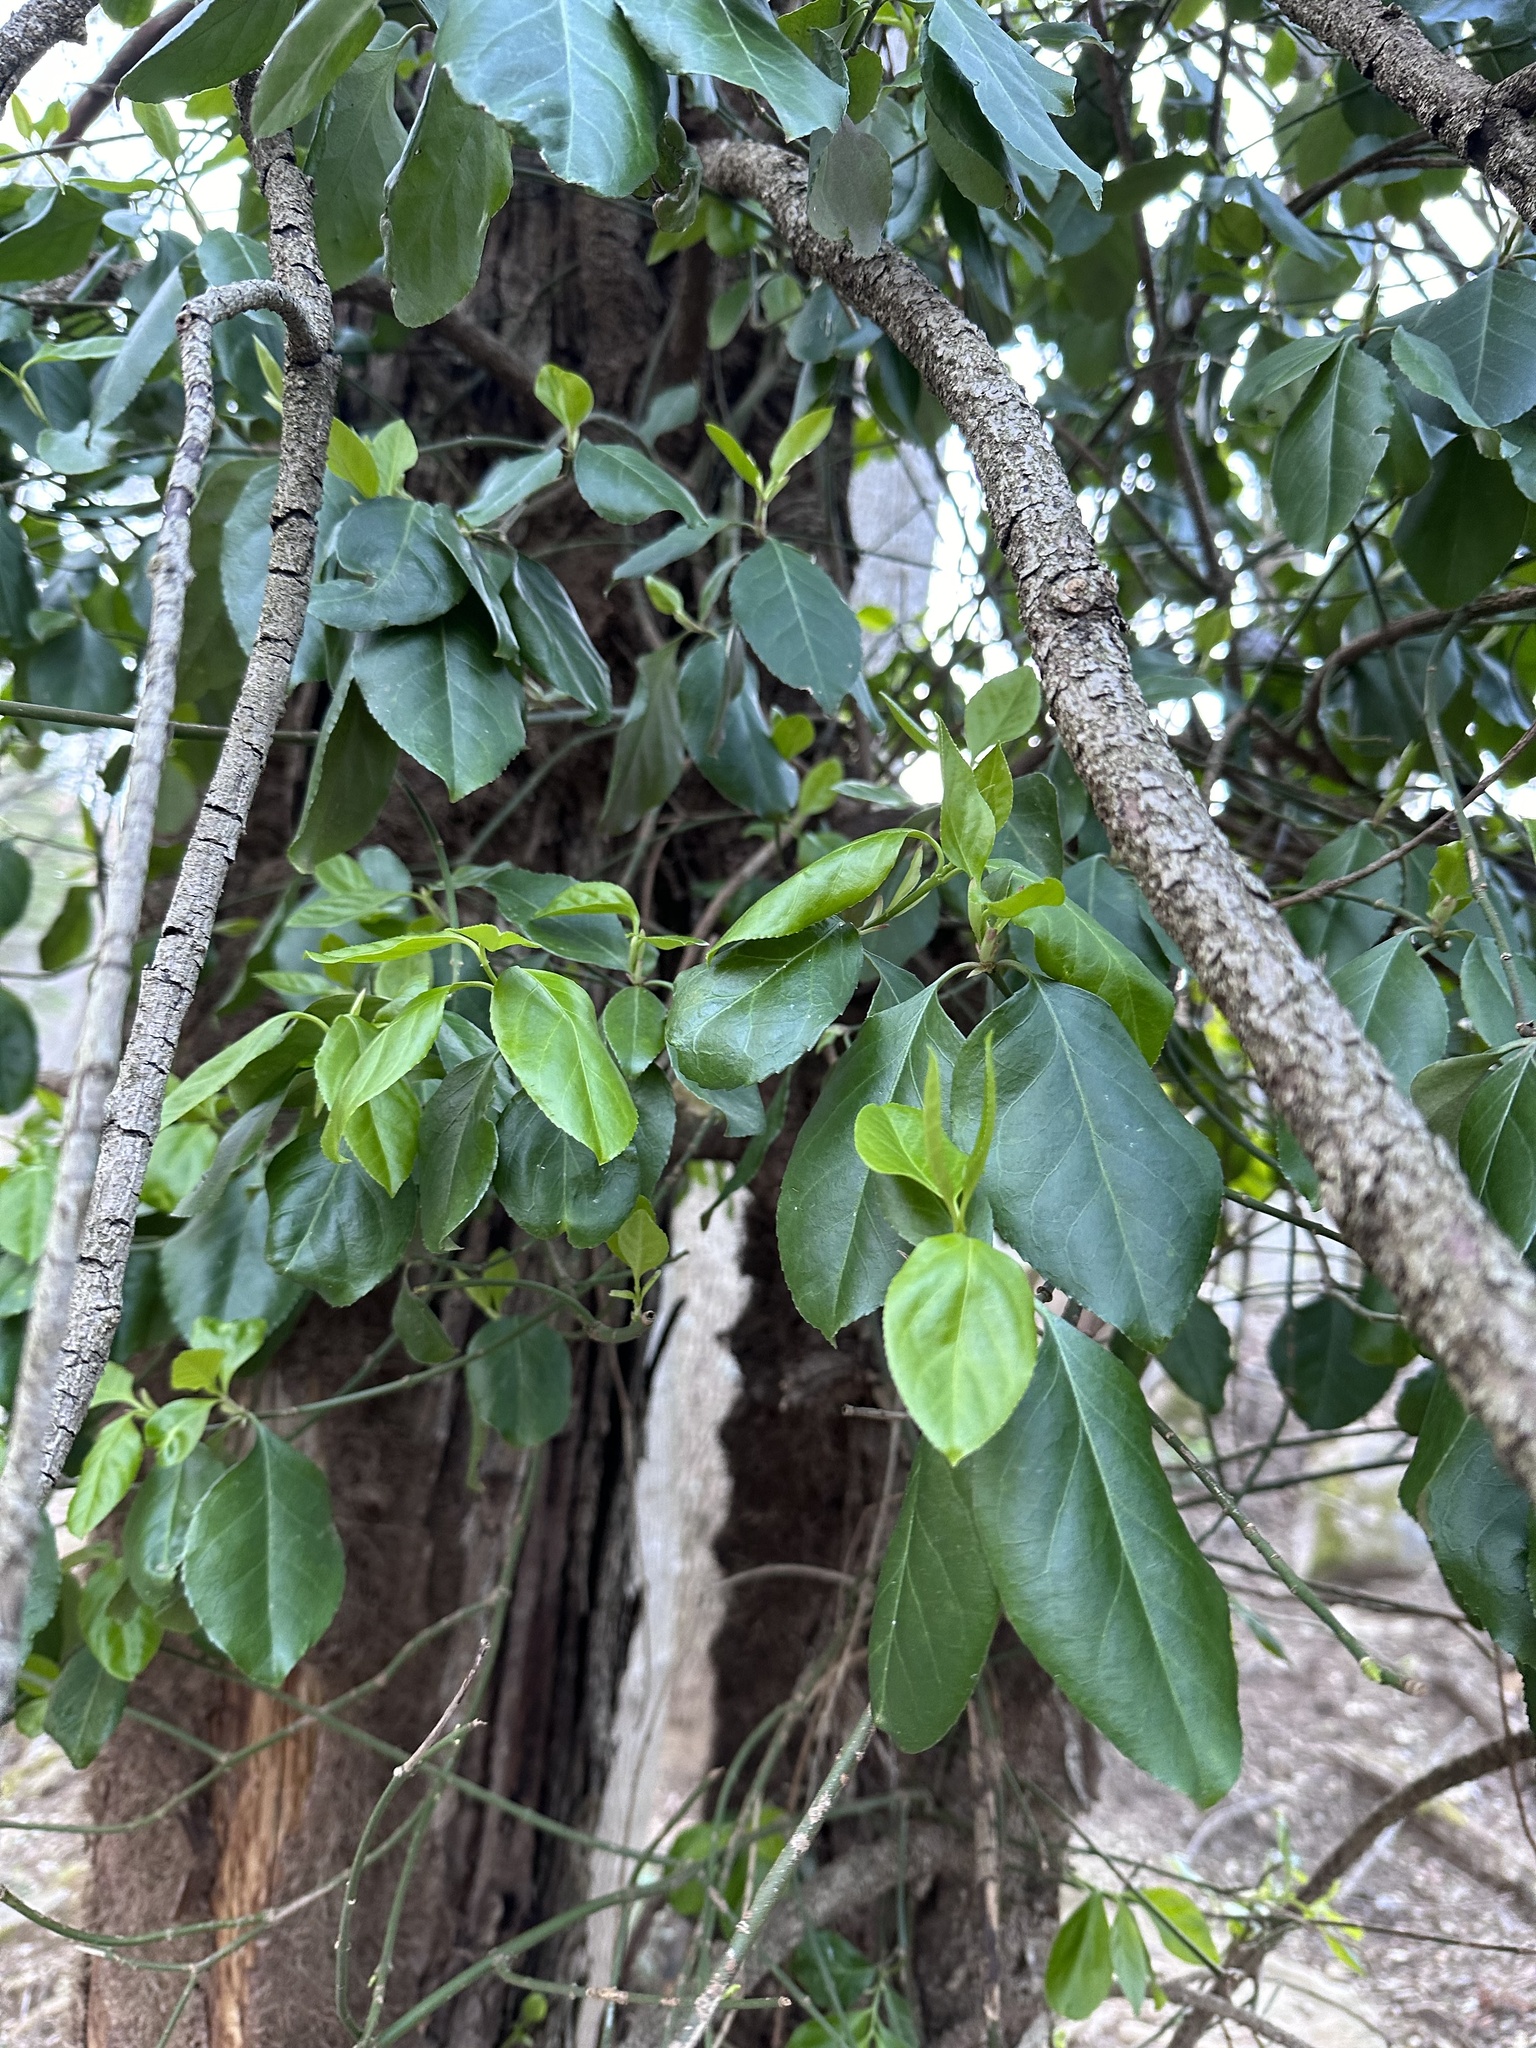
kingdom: Plantae
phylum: Tracheophyta
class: Magnoliopsida
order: Celastrales
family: Celastraceae
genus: Euonymus
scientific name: Euonymus fortunei
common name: Climbing euonymus
